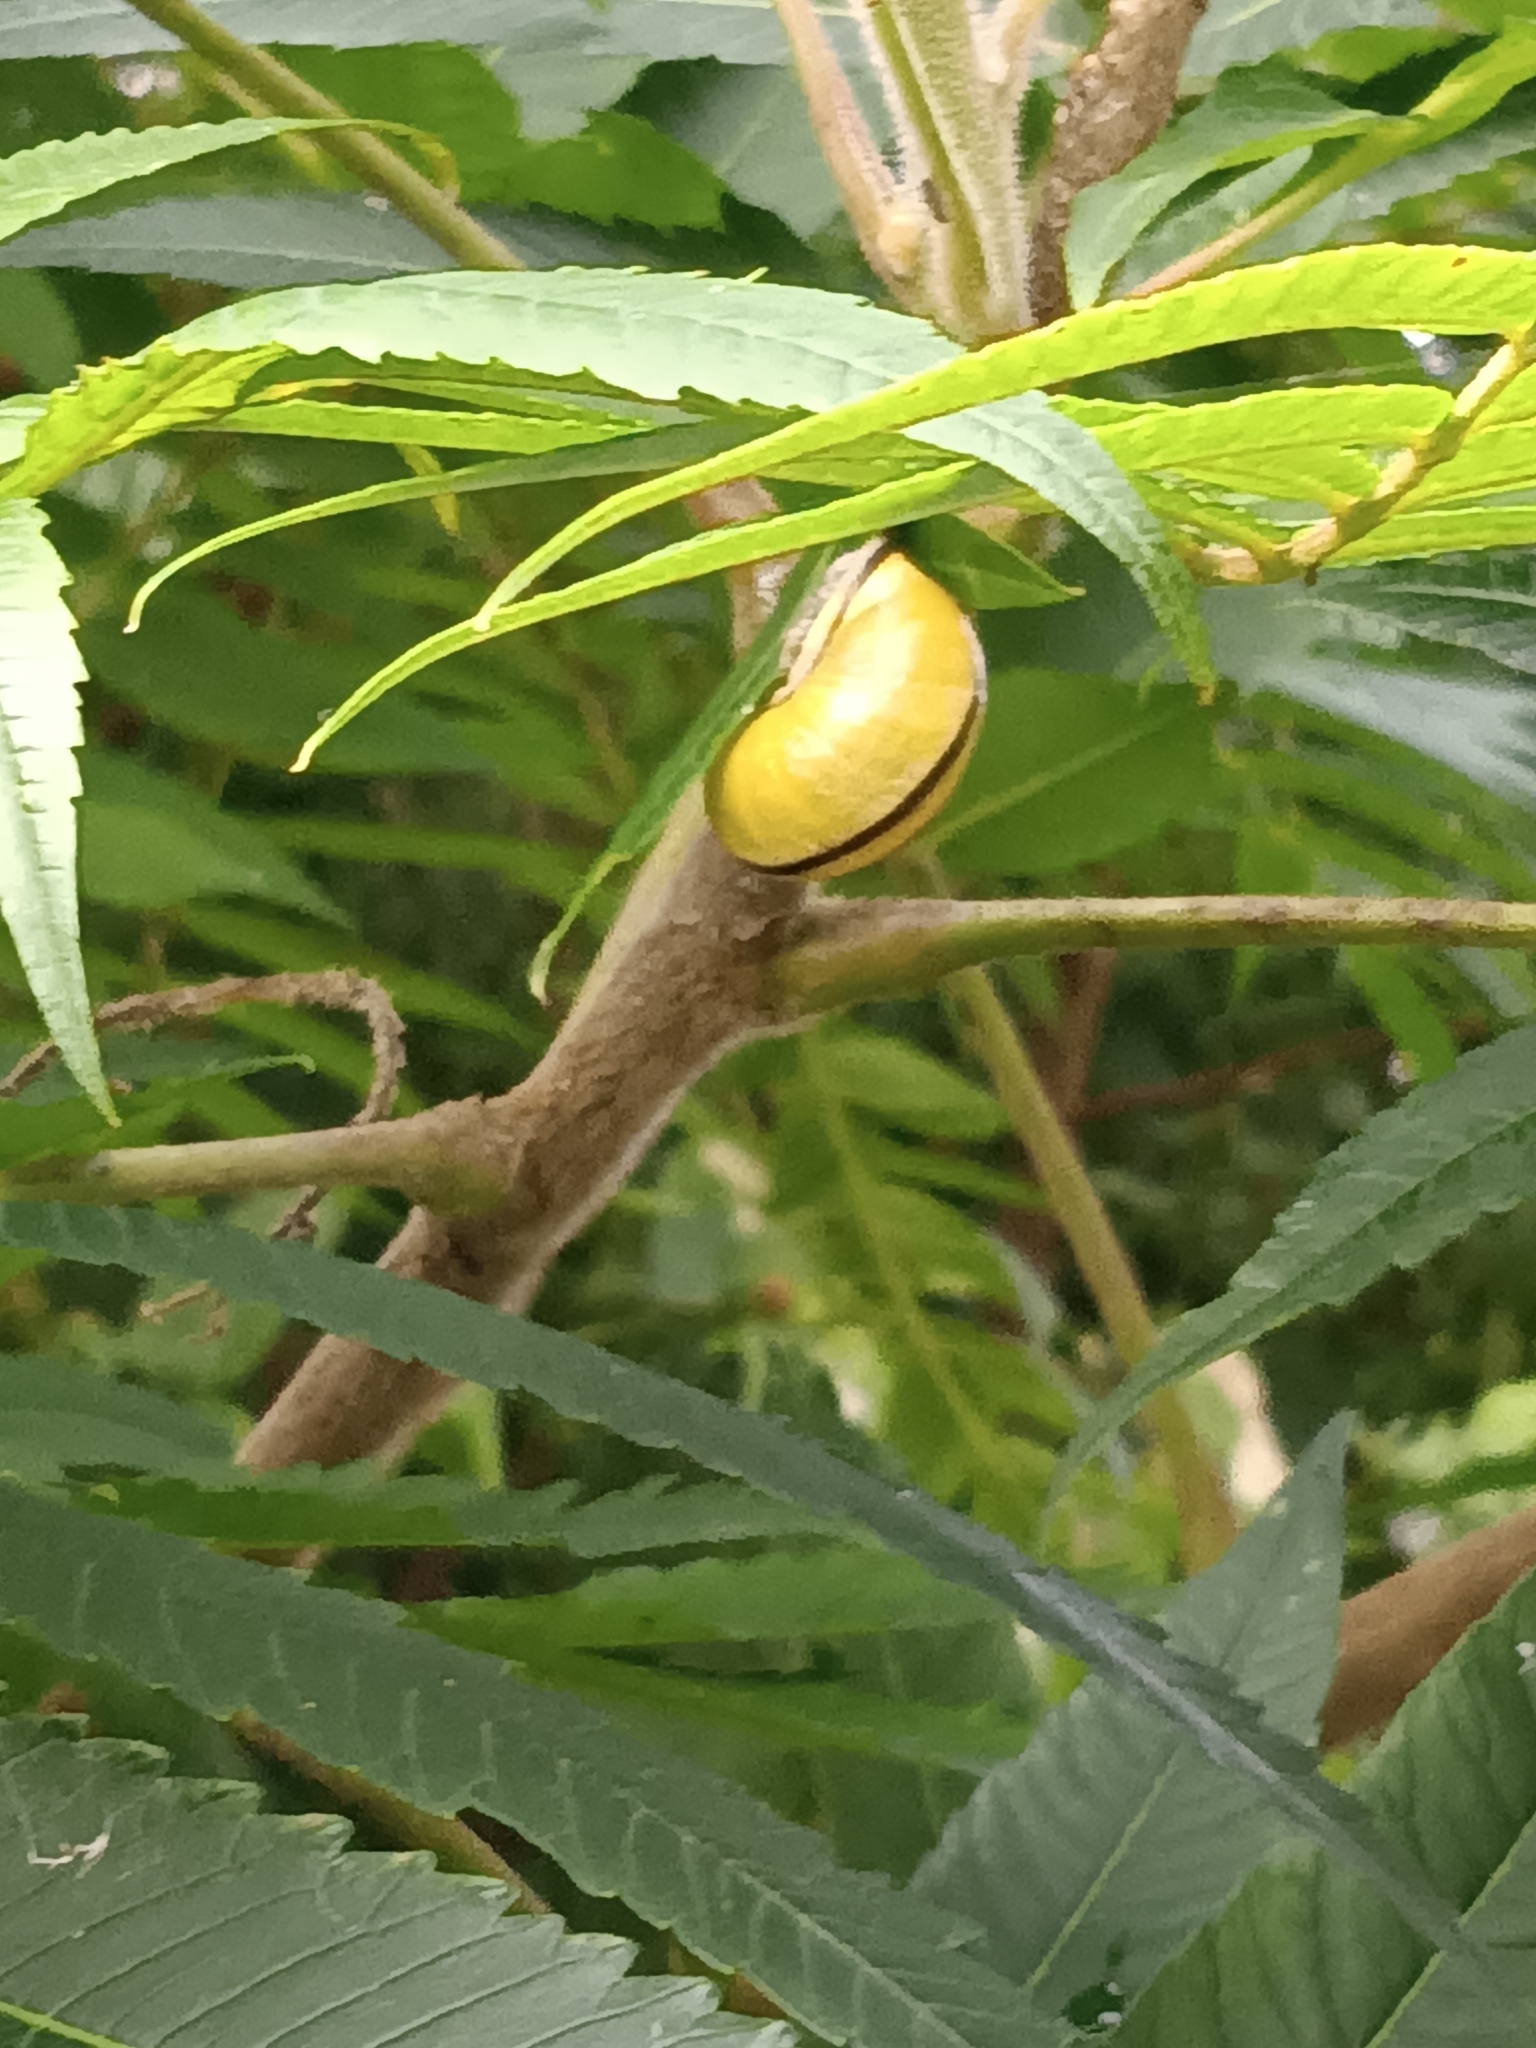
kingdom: Animalia
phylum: Mollusca
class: Gastropoda
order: Stylommatophora
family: Helicidae
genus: Cepaea
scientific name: Cepaea nemoralis
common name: Grovesnail
